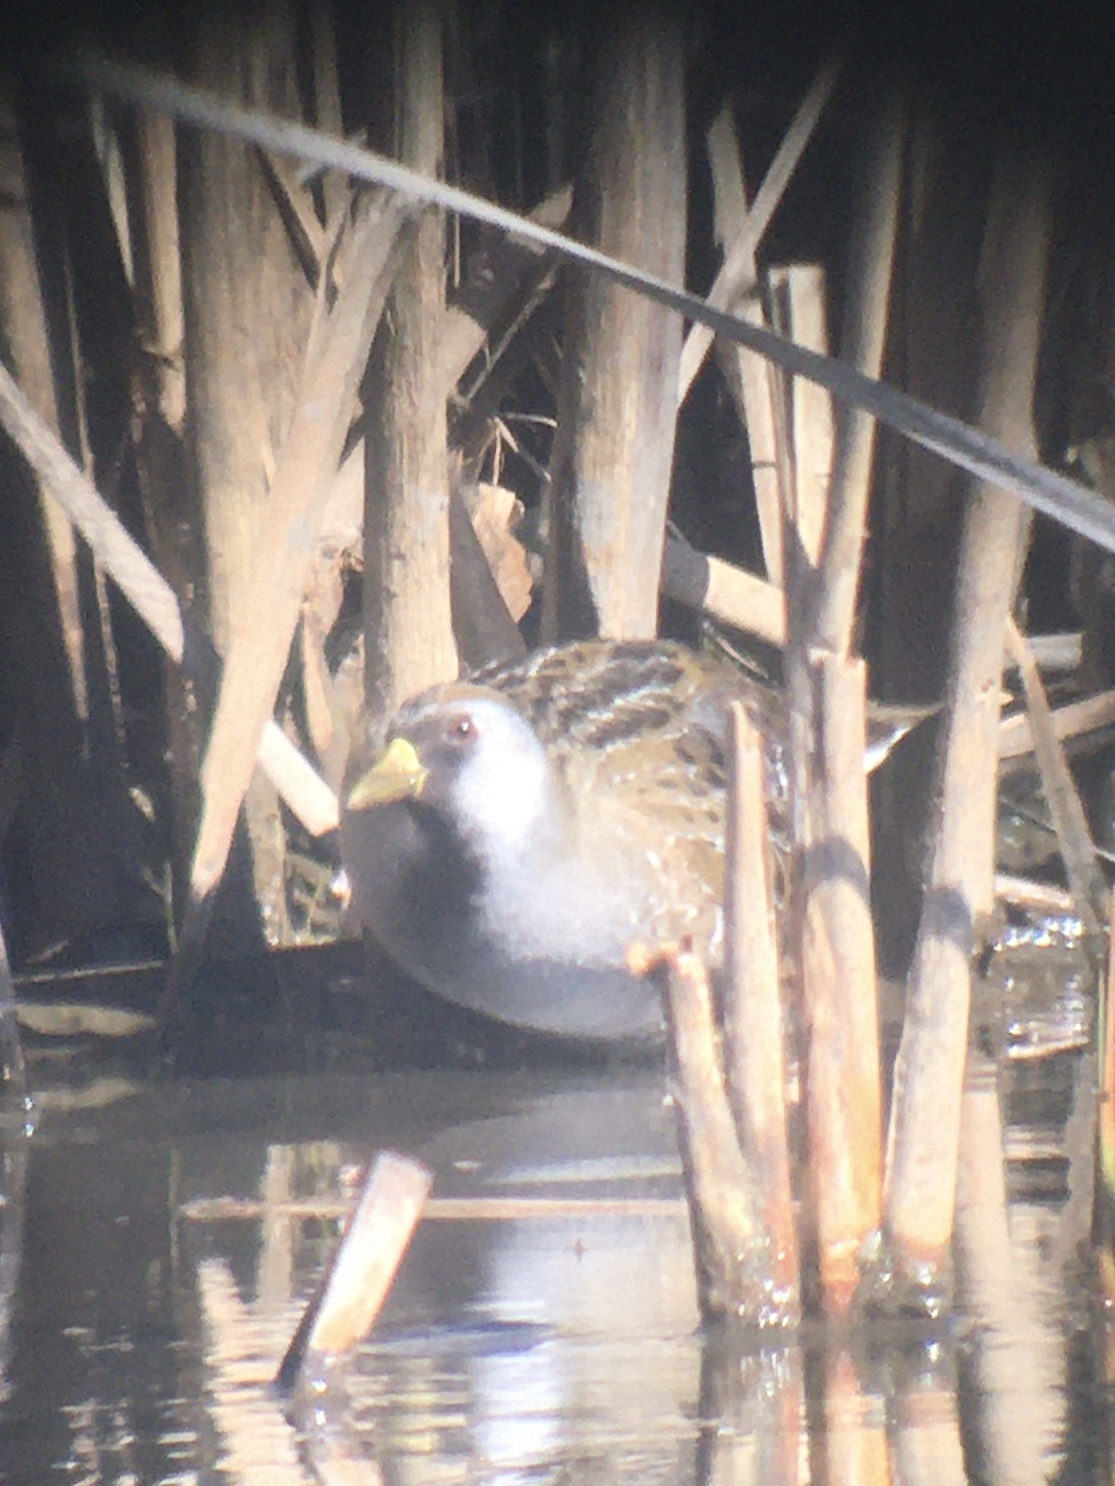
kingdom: Animalia
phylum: Chordata
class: Aves
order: Gruiformes
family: Rallidae
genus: Porzana
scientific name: Porzana carolina
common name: Sora
